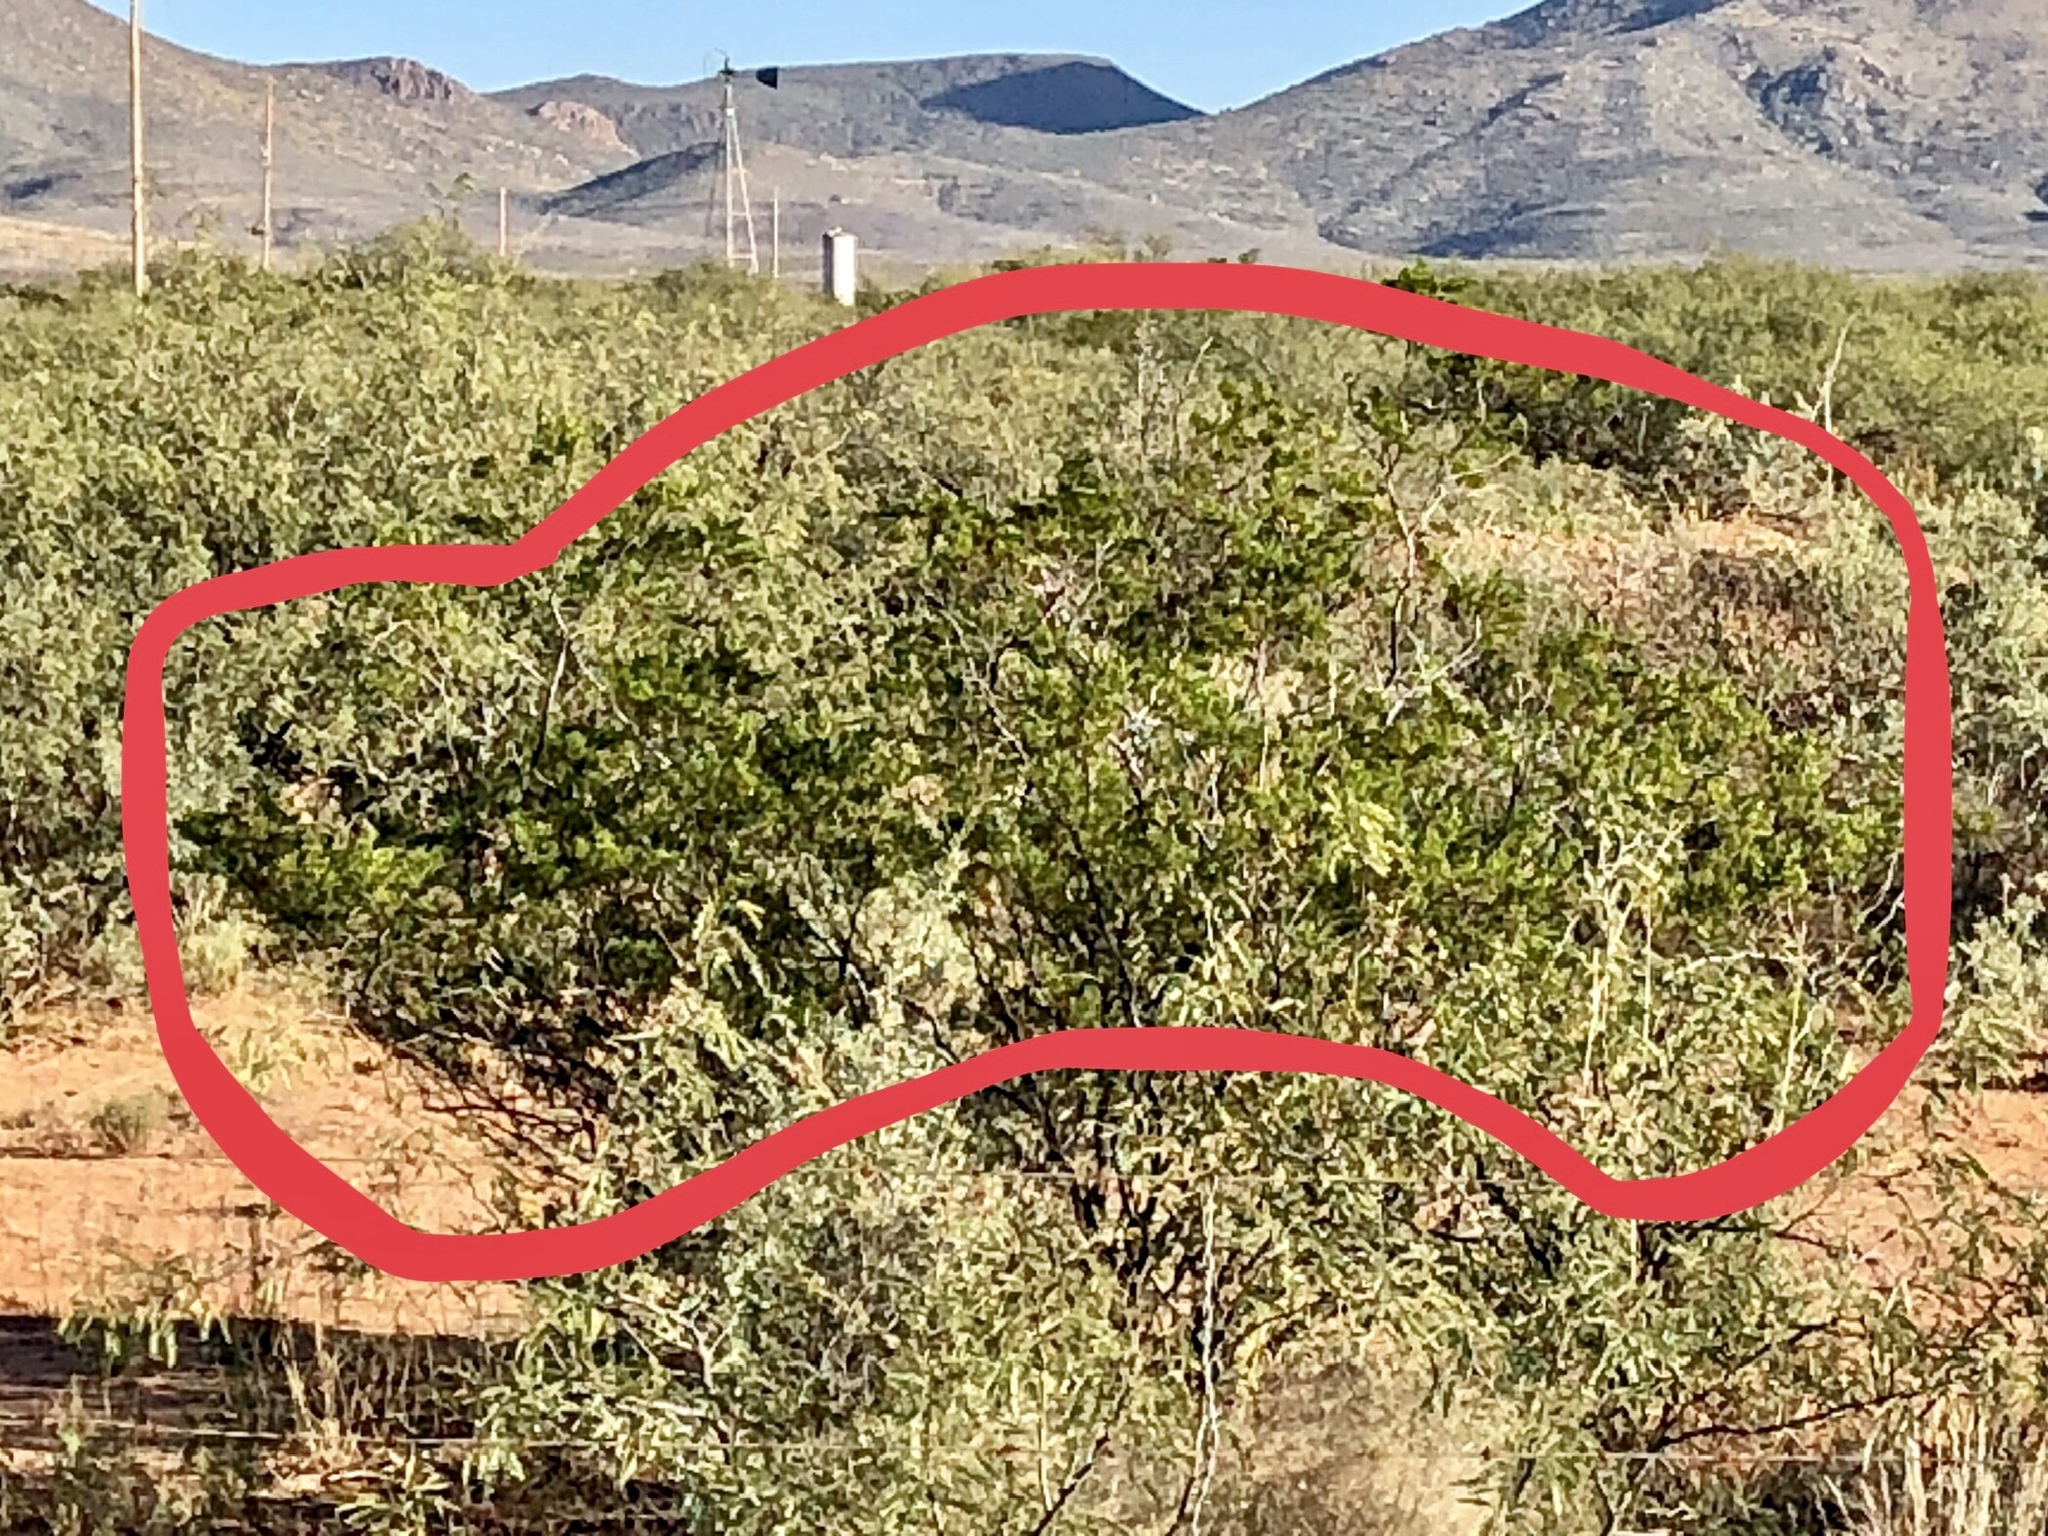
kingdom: Plantae
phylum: Tracheophyta
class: Magnoliopsida
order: Zygophyllales
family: Zygophyllaceae
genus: Larrea
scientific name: Larrea tridentata
